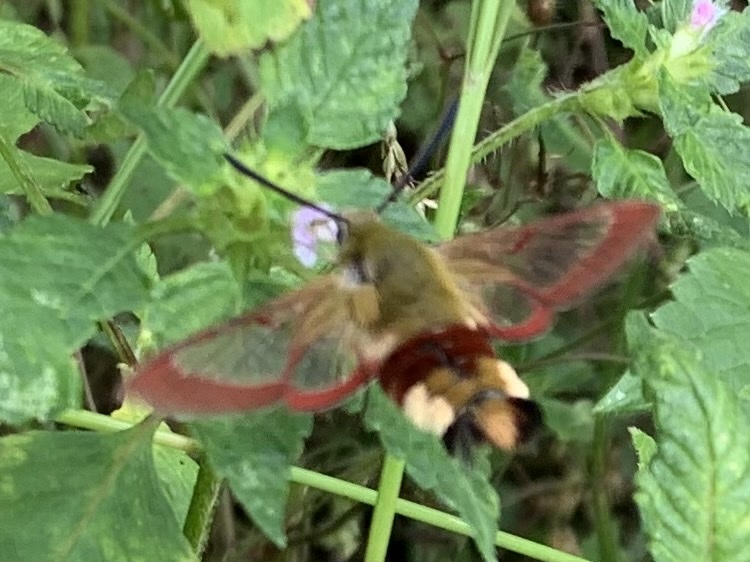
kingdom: Animalia
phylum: Arthropoda
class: Insecta
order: Lepidoptera
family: Sphingidae
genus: Hemaris
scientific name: Hemaris fuciformis
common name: Broad-bordered bee hawk-moth
